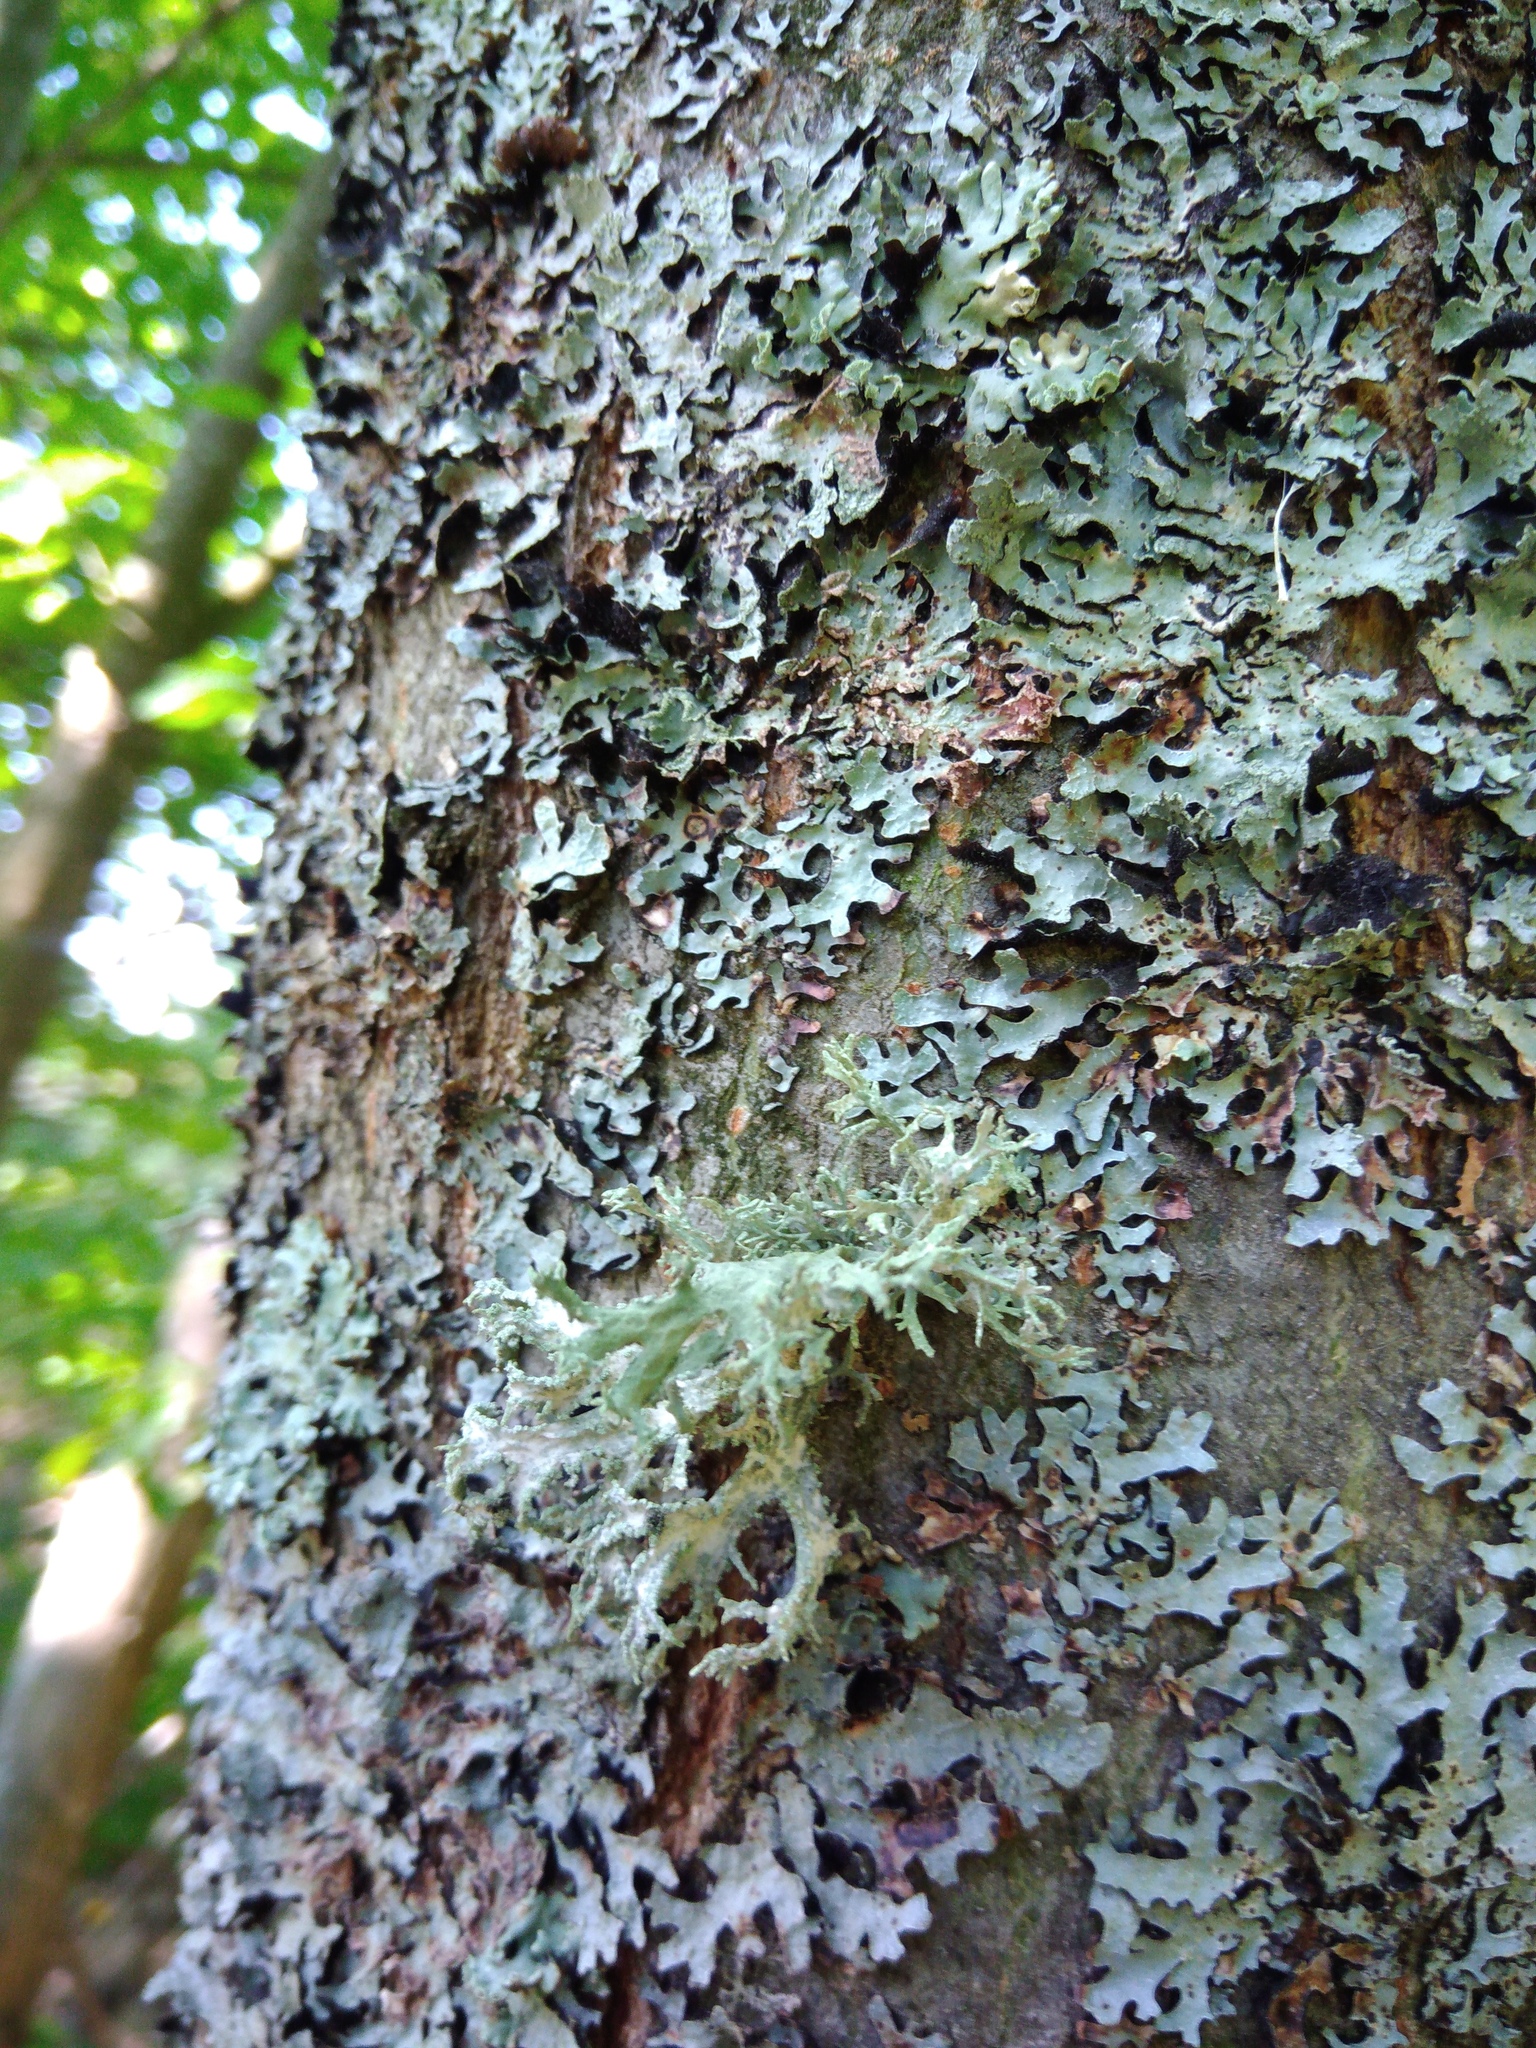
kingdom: Fungi
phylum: Ascomycota
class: Lecanoromycetes
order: Lecanorales
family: Parmeliaceae
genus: Evernia
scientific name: Evernia prunastri
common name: Oak moss
